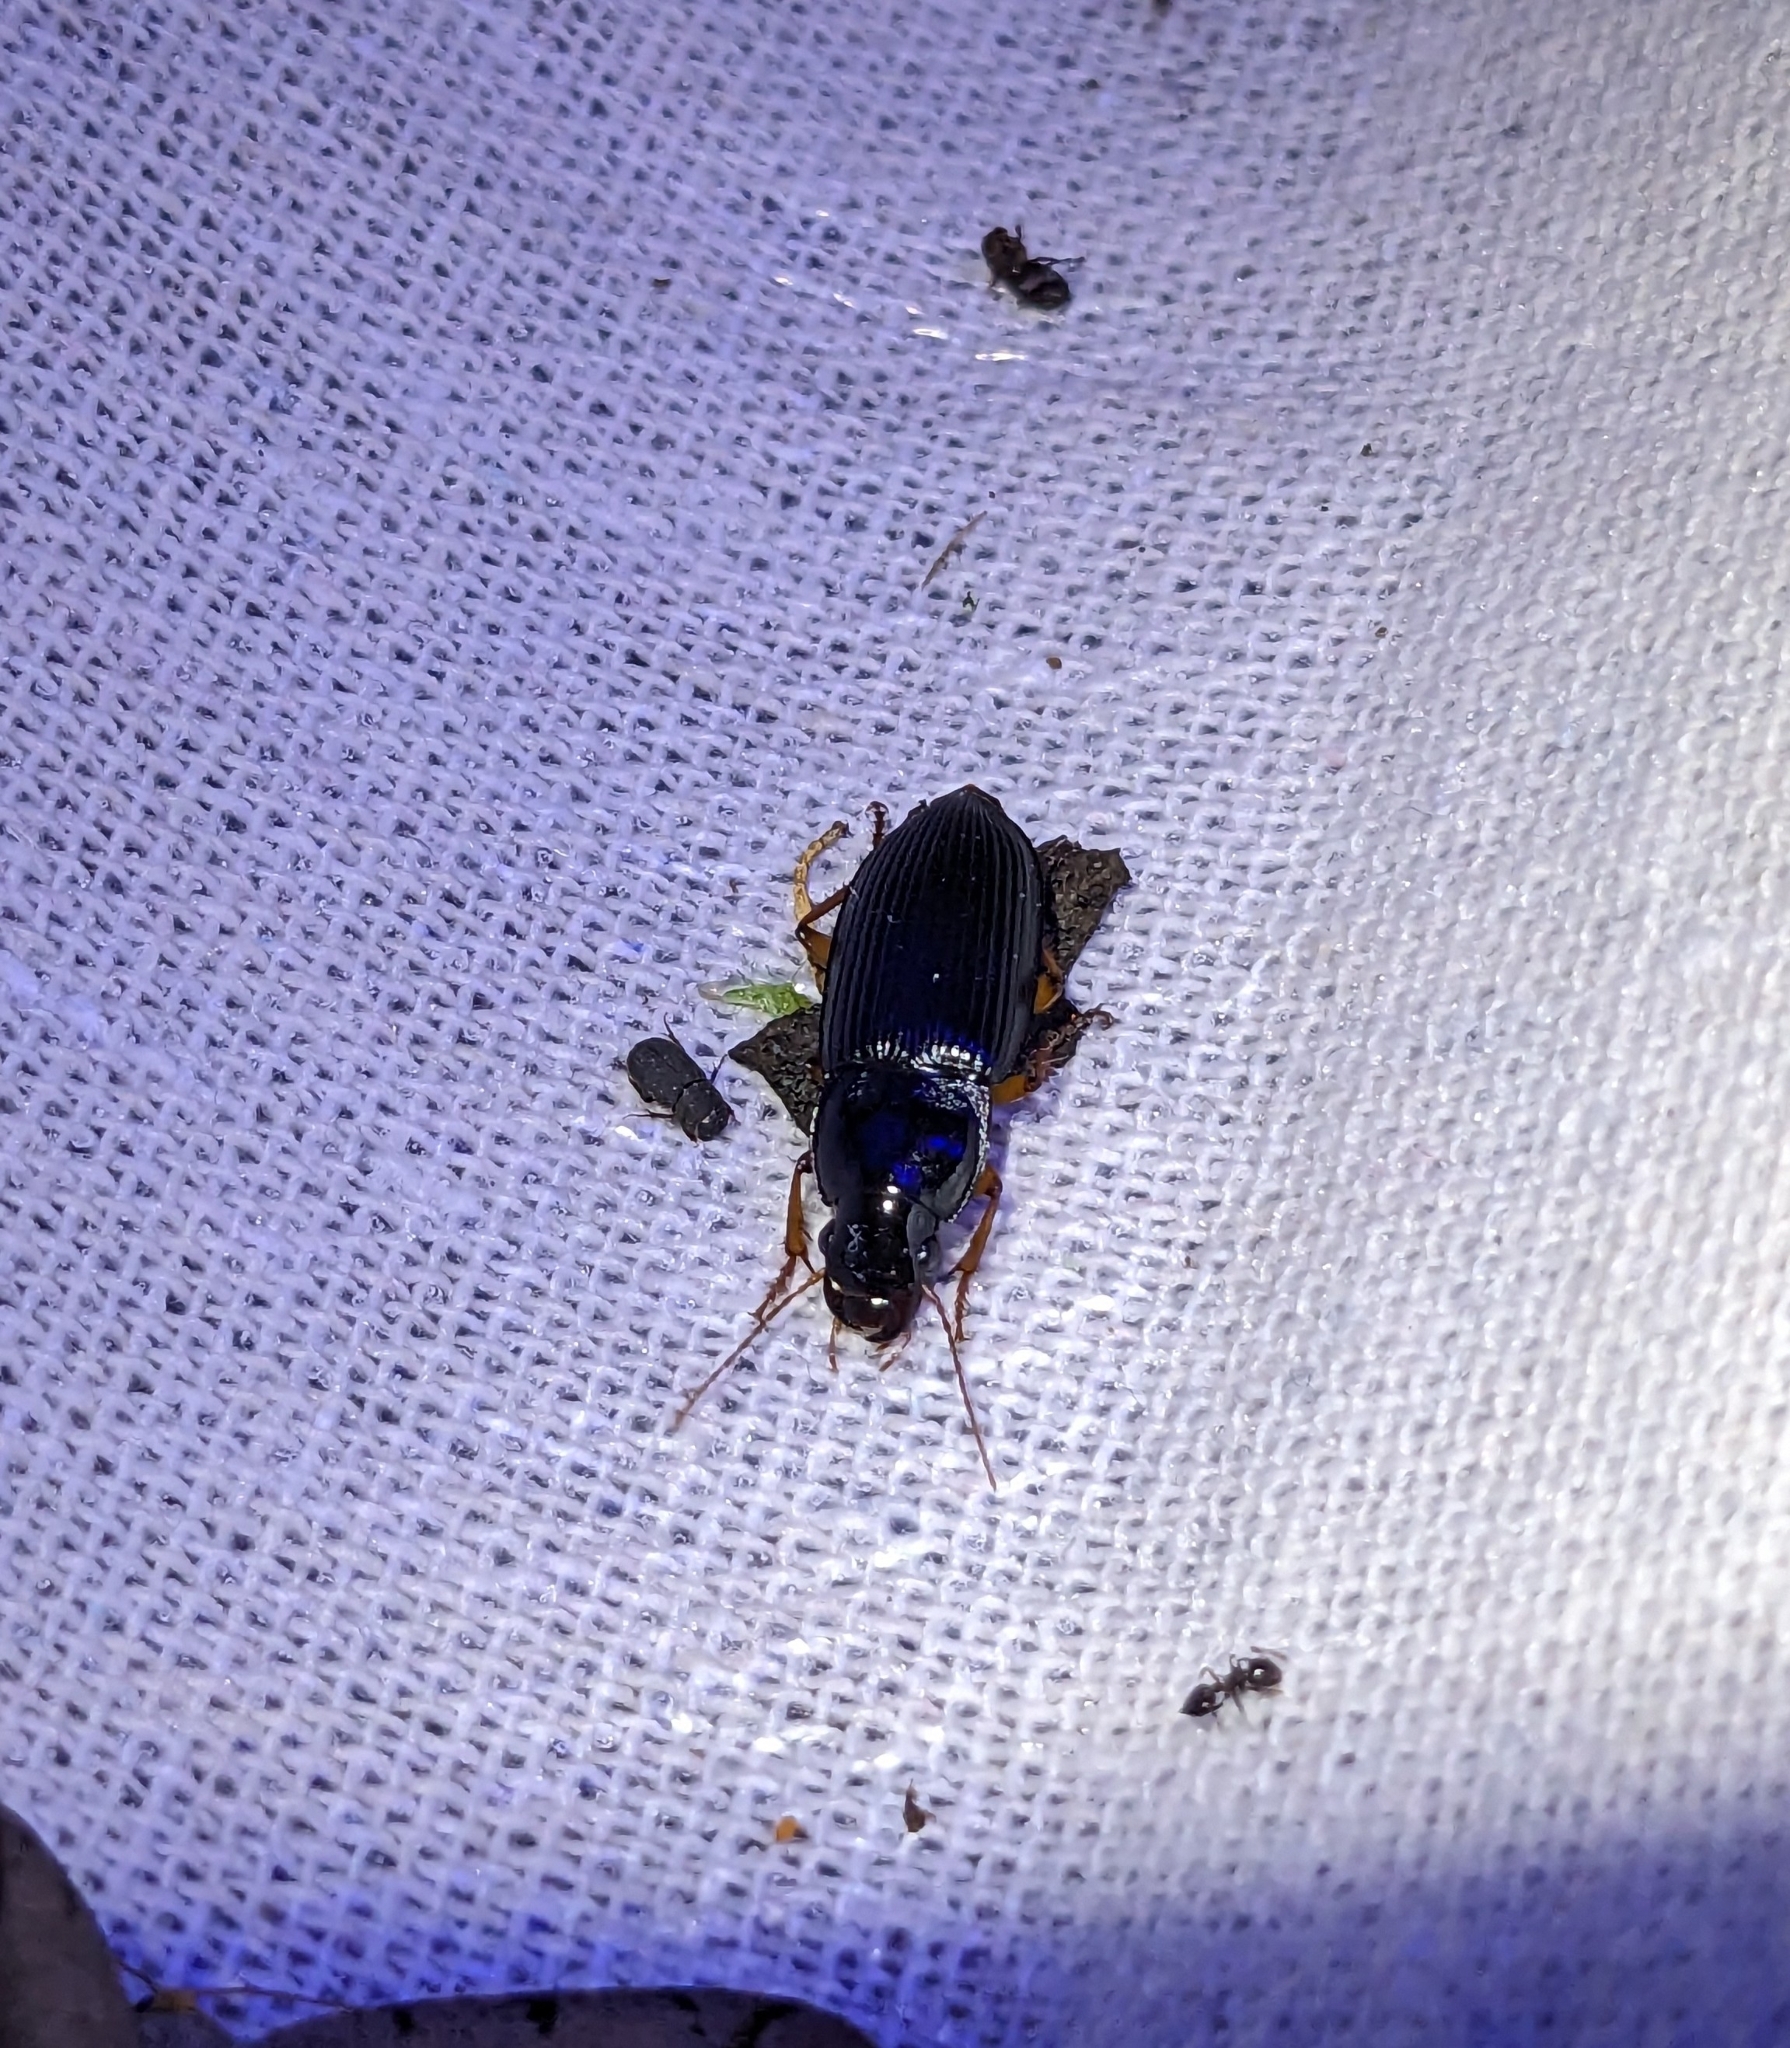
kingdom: Animalia
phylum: Arthropoda
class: Insecta
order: Coleoptera
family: Carabidae
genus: Harpalus
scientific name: Harpalus pensylvanicus
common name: Pennsylvania dingy ground beetle
